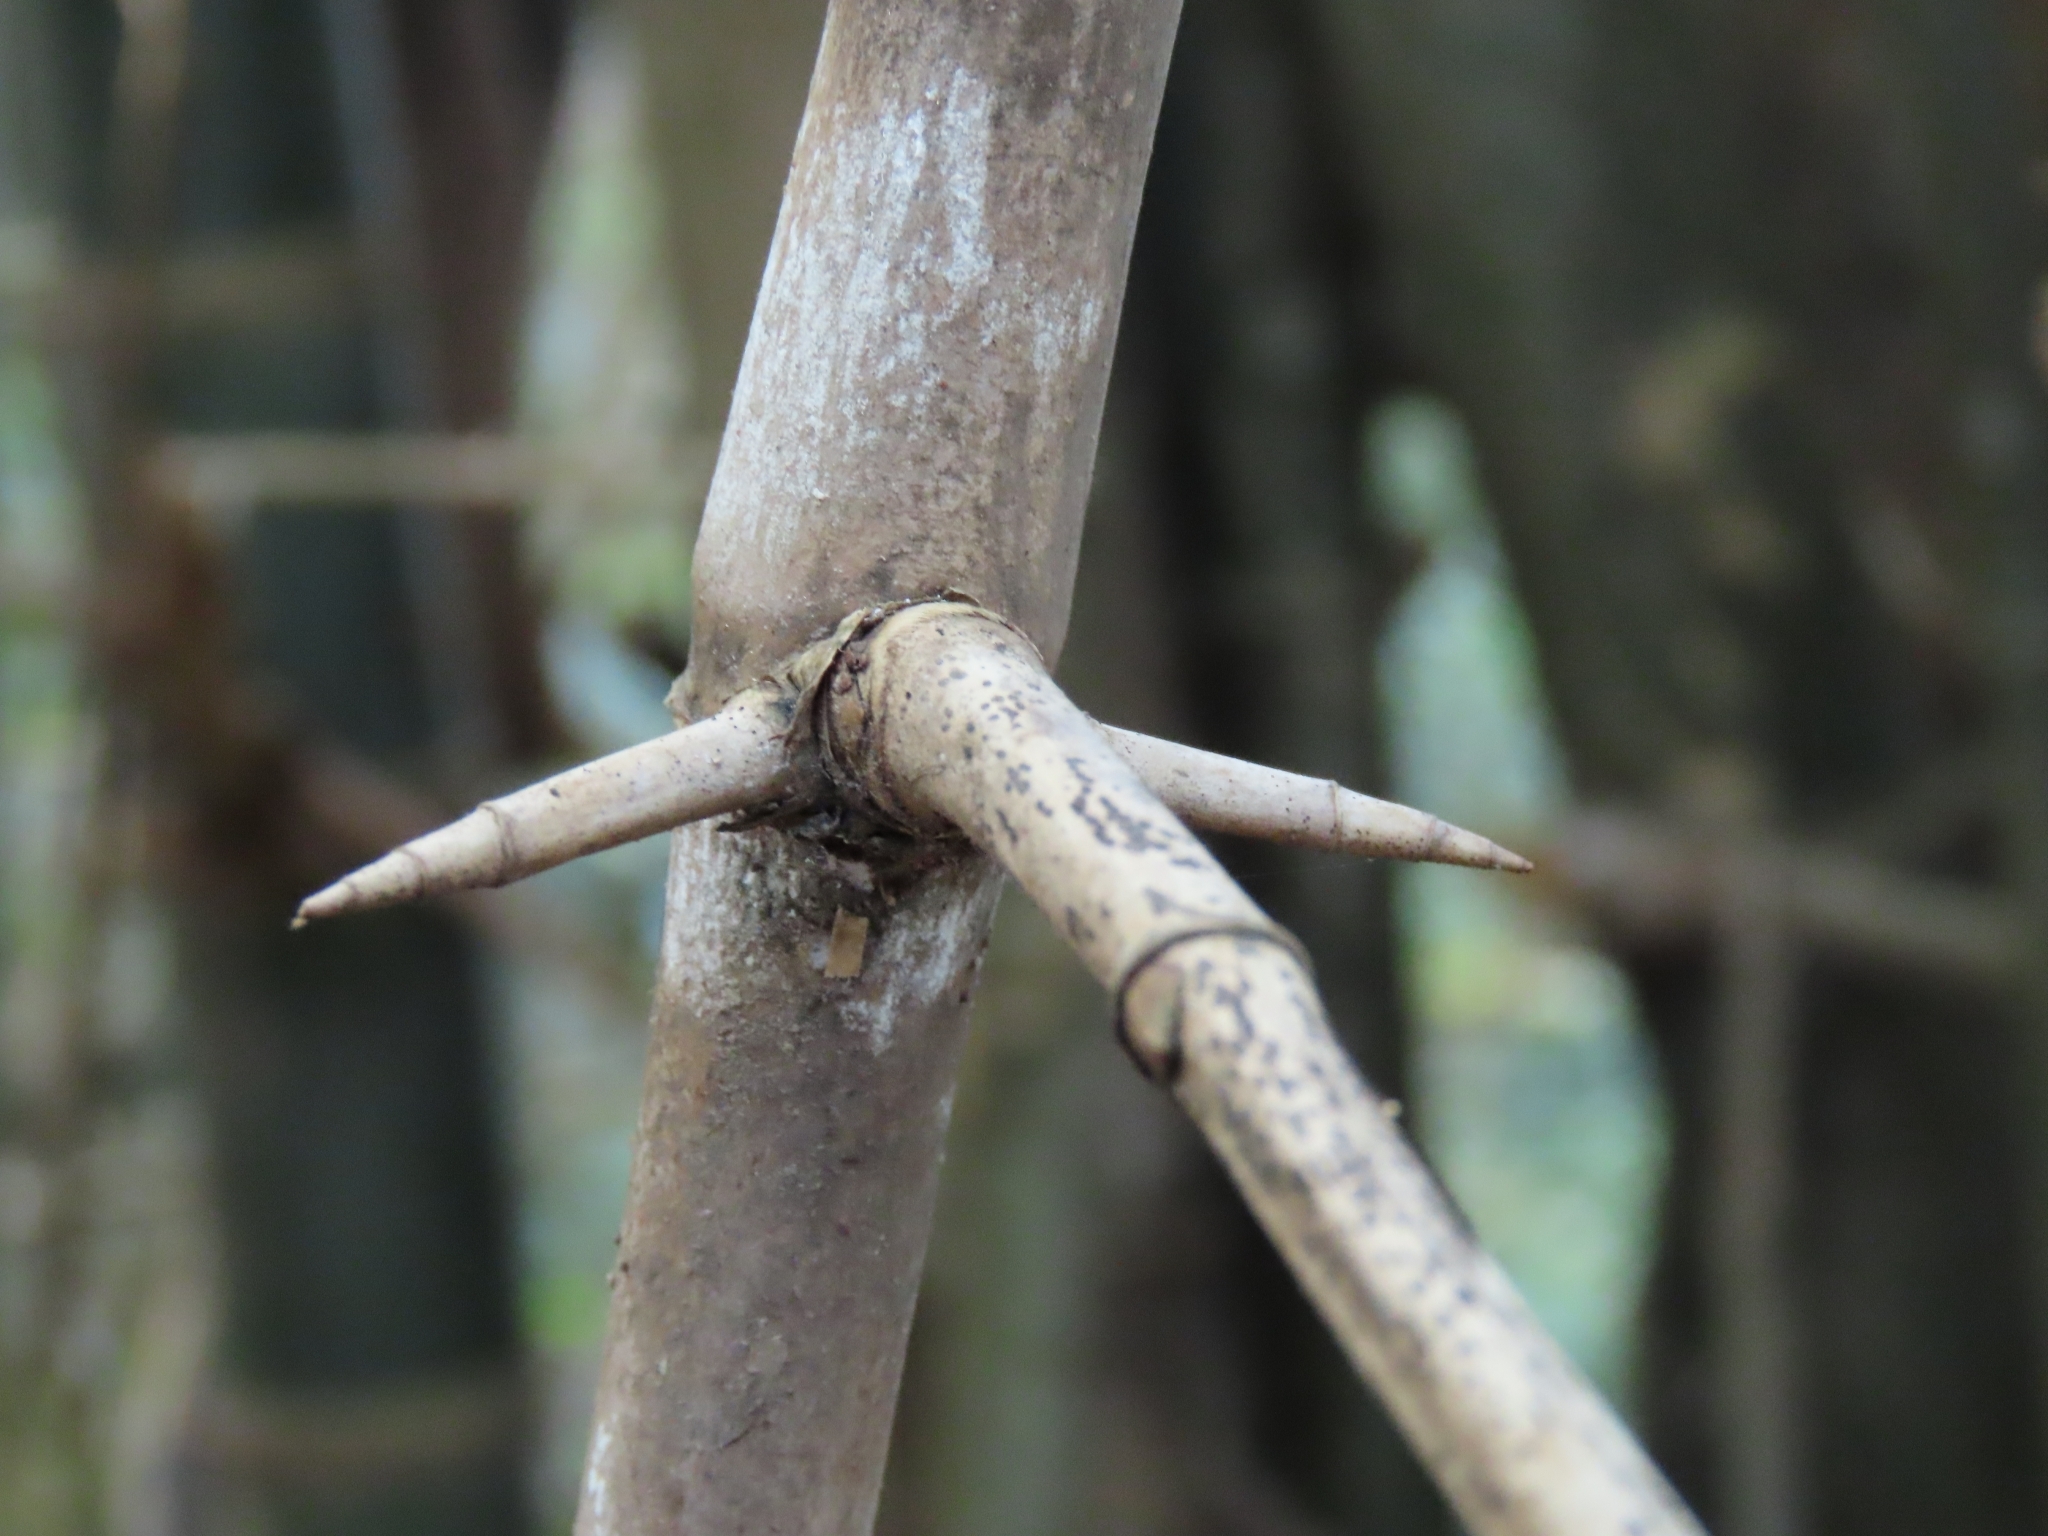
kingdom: Plantae
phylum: Tracheophyta
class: Liliopsida
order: Poales
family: Poaceae
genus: Bambusa
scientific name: Bambusa spinosa
